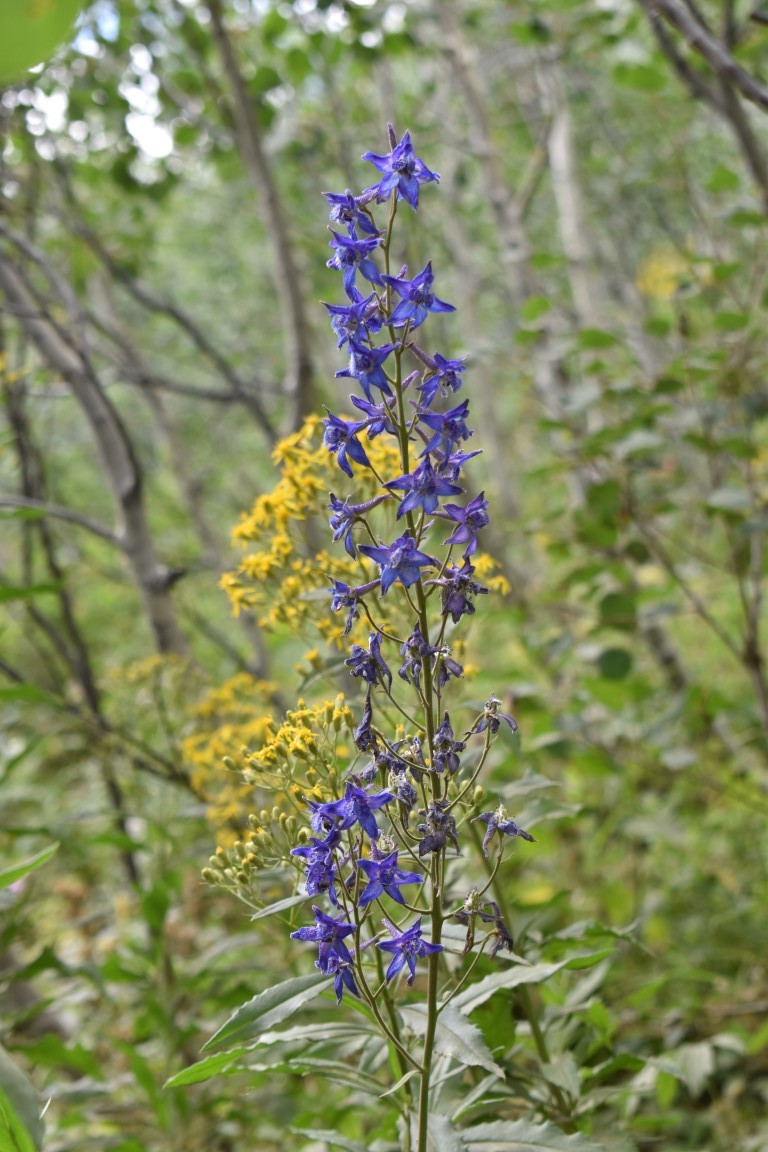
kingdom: Plantae
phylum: Tracheophyta
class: Magnoliopsida
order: Ranunculales
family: Ranunculaceae
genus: Delphinium
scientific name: Delphinium glaucum
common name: Brown's larkspur
